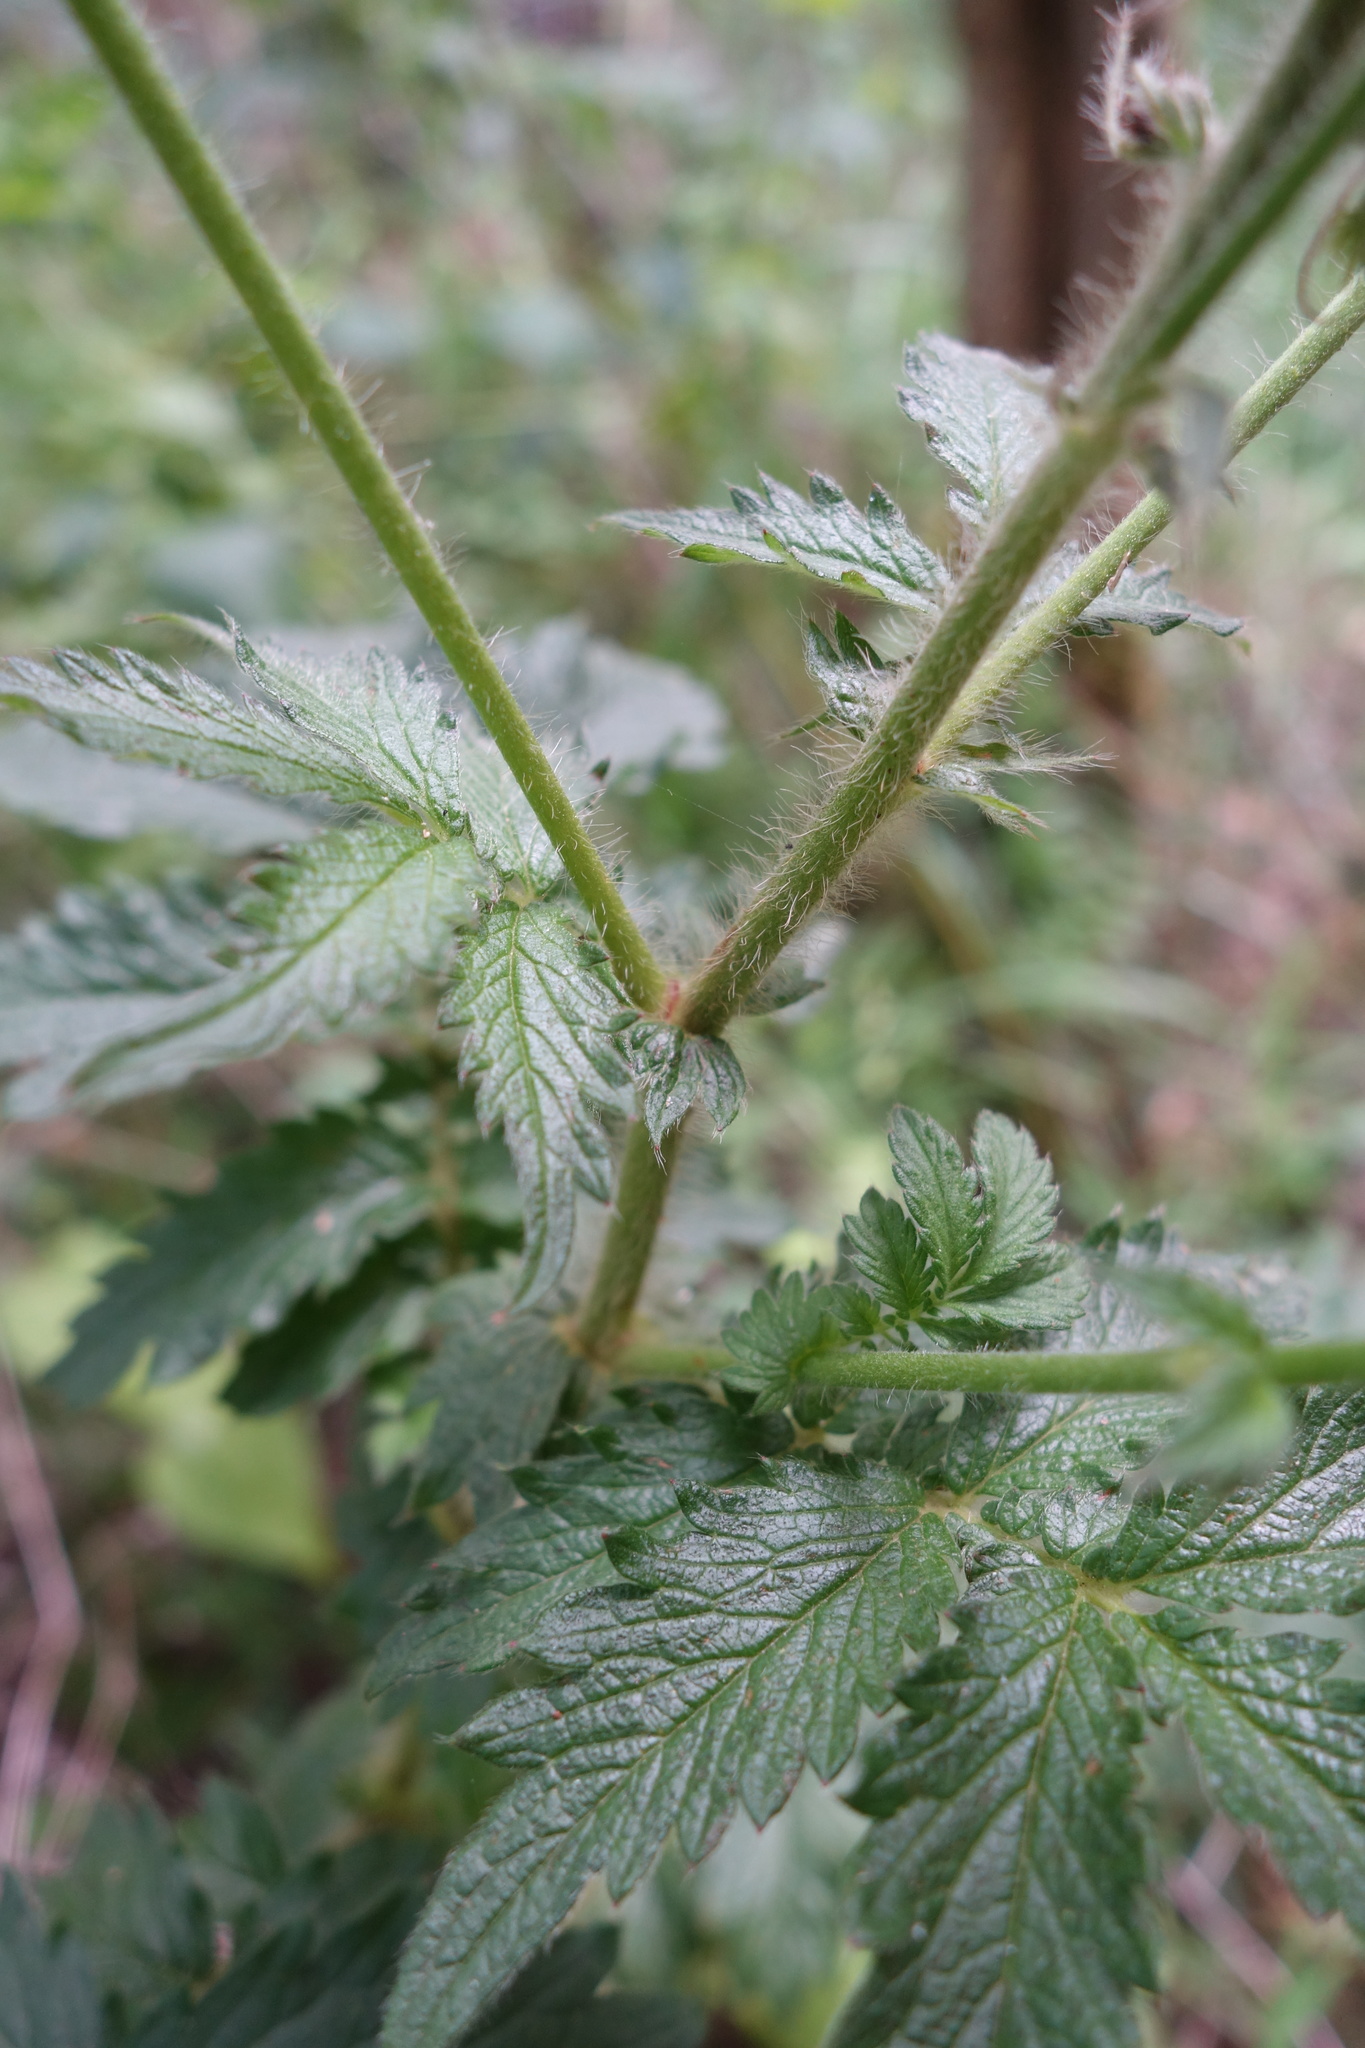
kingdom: Plantae
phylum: Tracheophyta
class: Magnoliopsida
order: Rosales
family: Rosaceae
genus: Agrimonia
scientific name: Agrimonia eupatoria
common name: Agrimony
